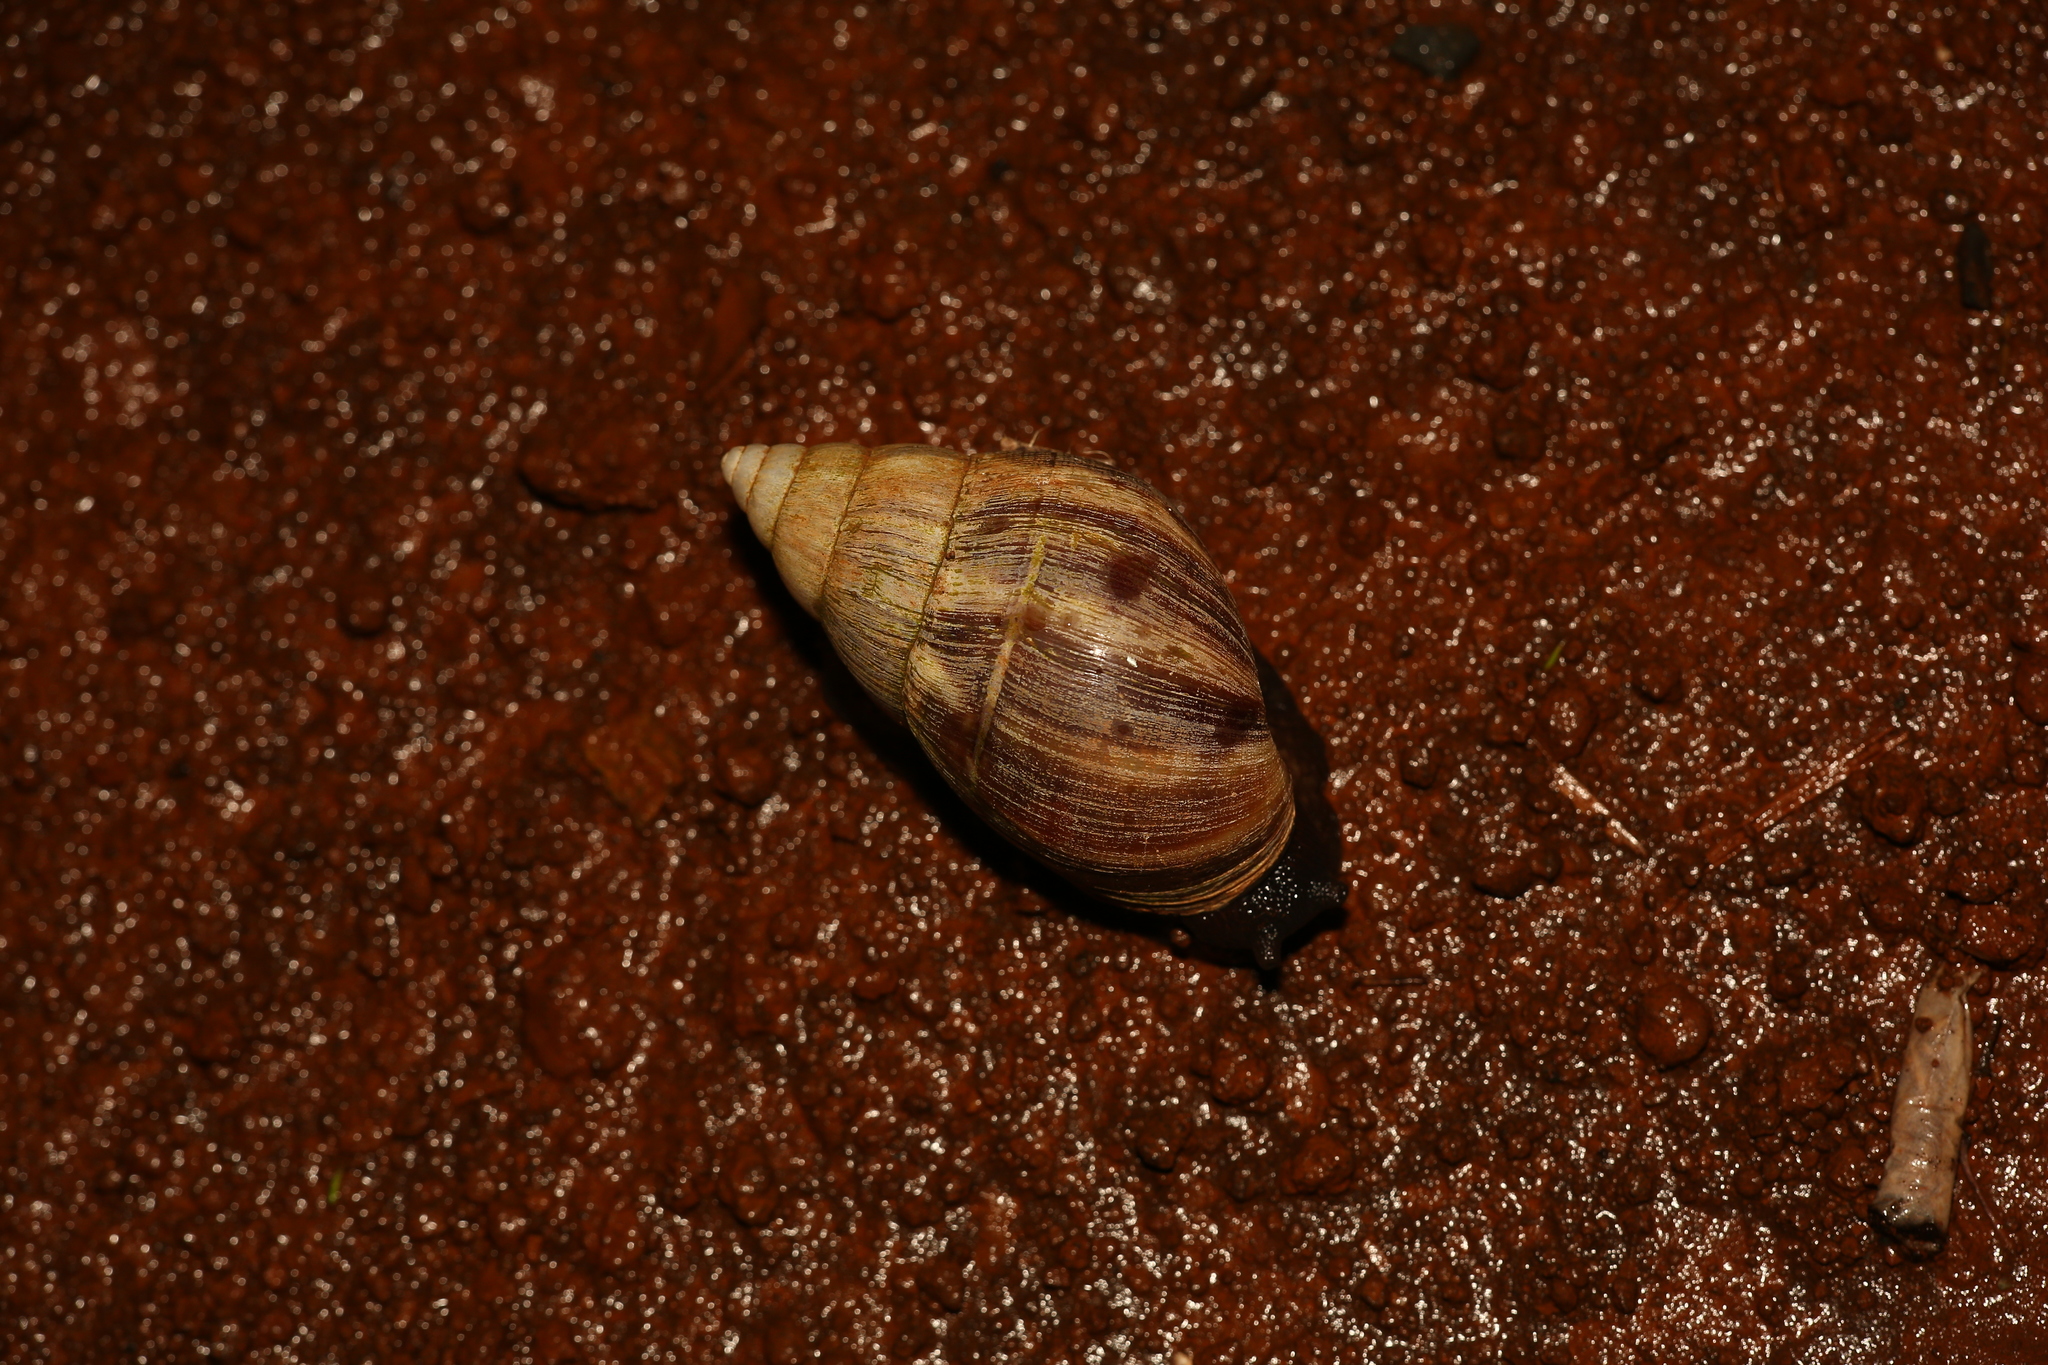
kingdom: Animalia
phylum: Mollusca
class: Gastropoda
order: Stylommatophora
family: Achatinidae
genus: Lissachatina
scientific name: Lissachatina fulica
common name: Giant african snail
